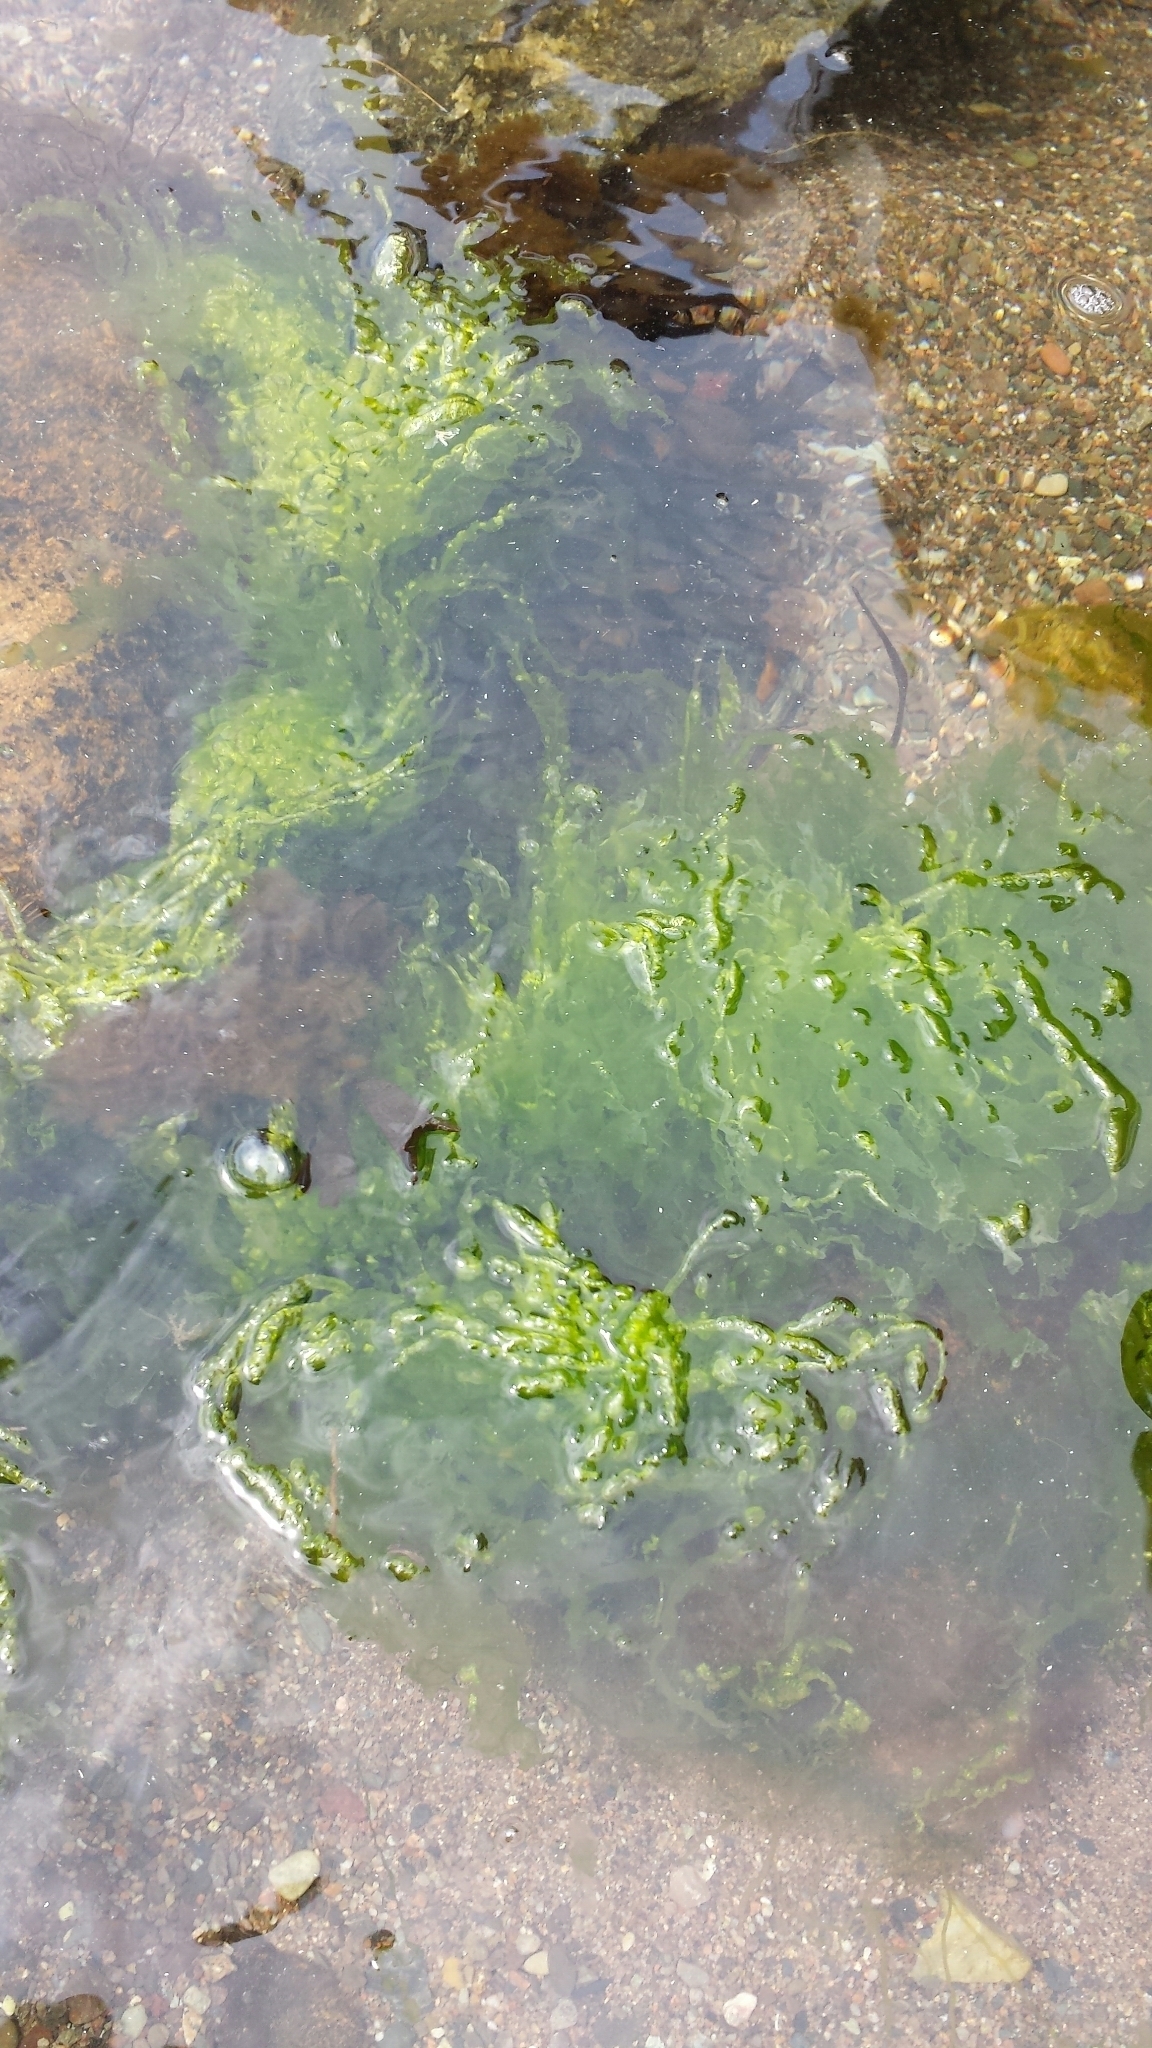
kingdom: Plantae
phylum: Chlorophyta
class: Ulvophyceae
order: Ulvales
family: Ulvaceae
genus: Ulva
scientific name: Ulva intestinalis
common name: Gut weed
